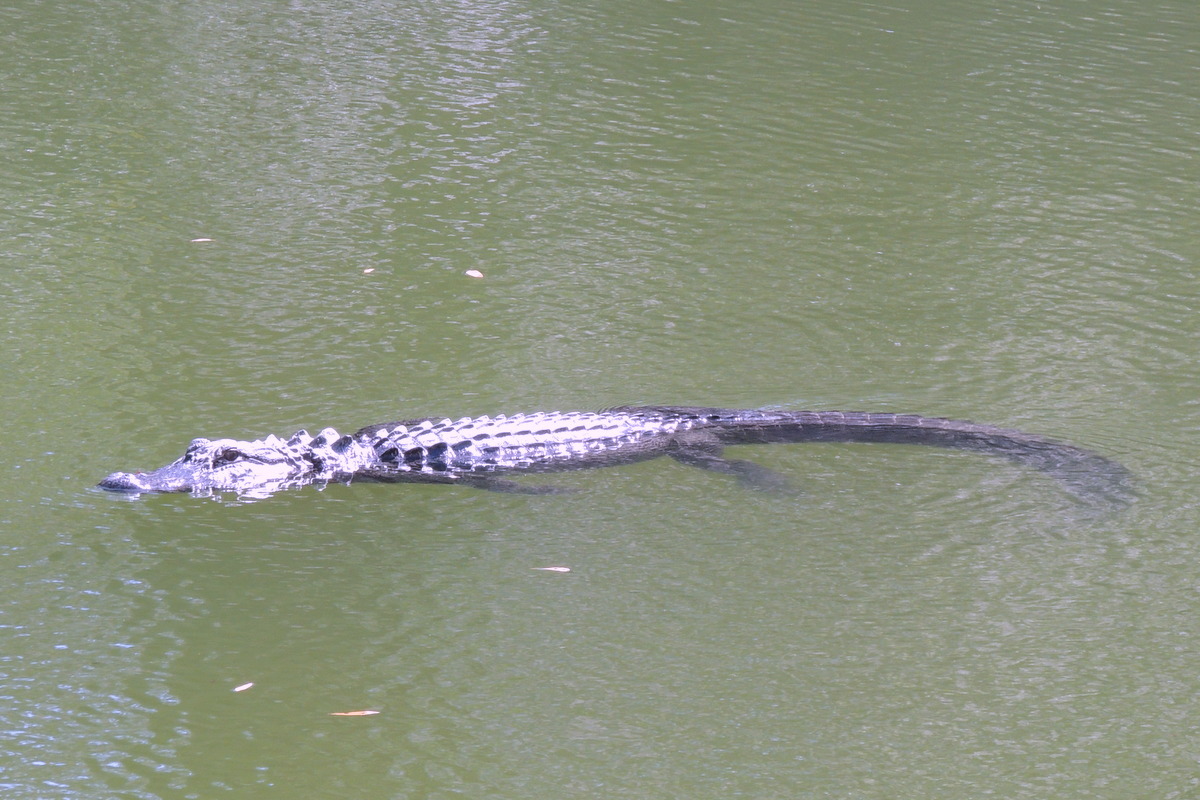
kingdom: Animalia
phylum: Chordata
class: Crocodylia
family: Alligatoridae
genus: Alligator
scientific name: Alligator mississippiensis
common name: American alligator
